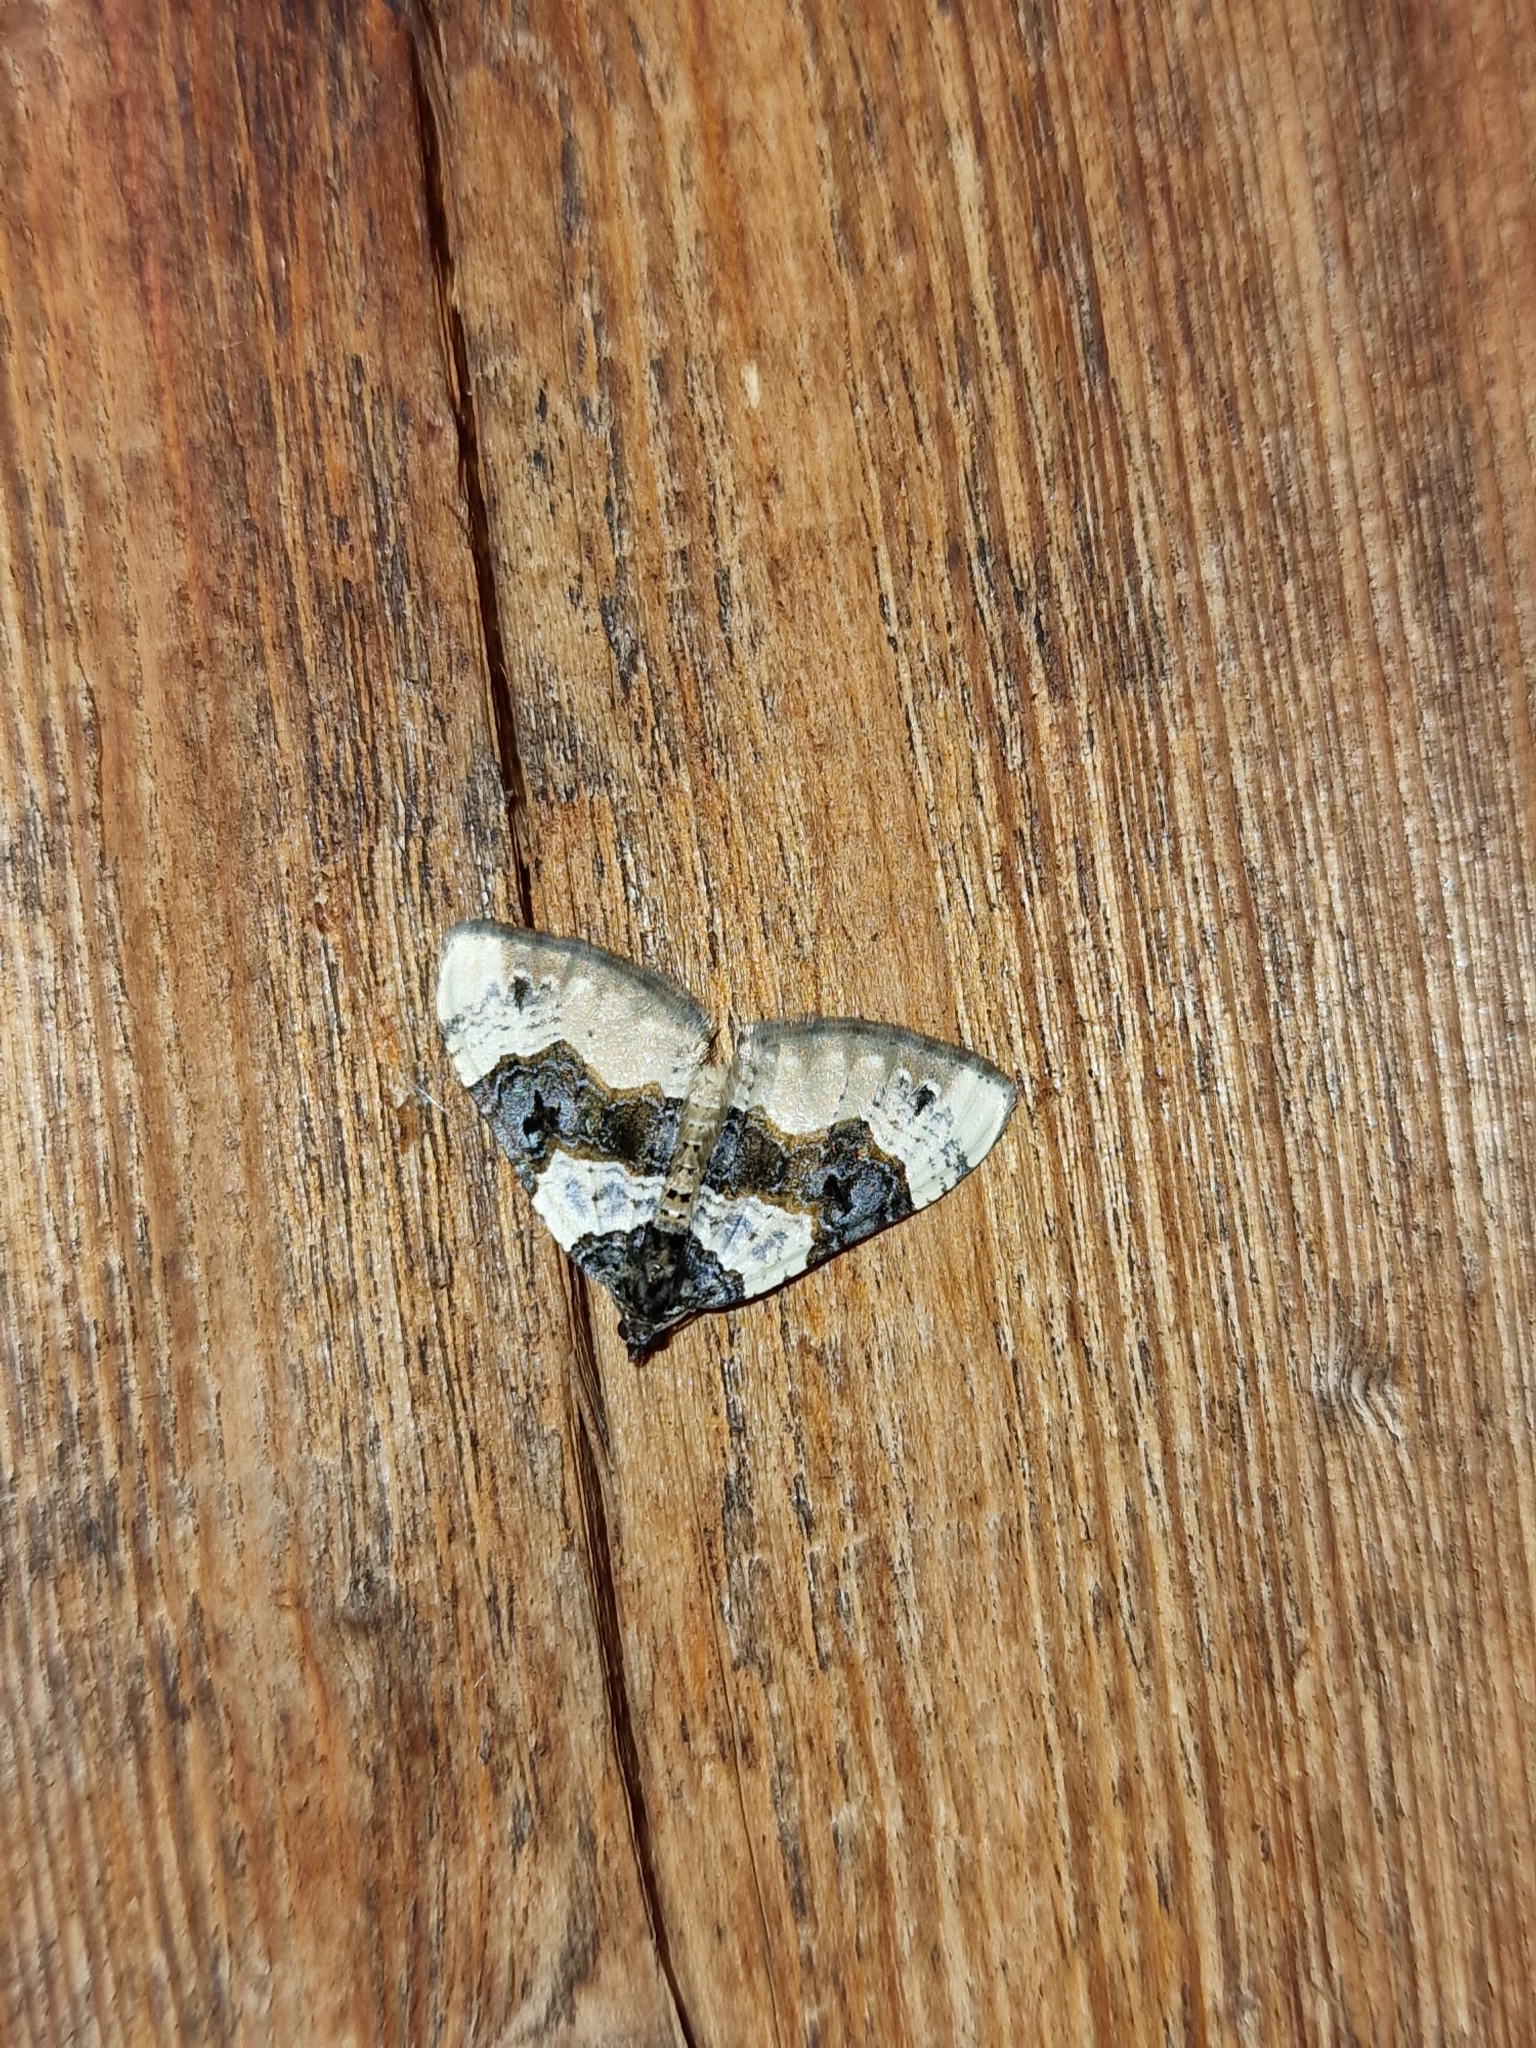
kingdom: Animalia
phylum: Arthropoda
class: Insecta
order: Lepidoptera
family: Geometridae
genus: Cosmorhoe
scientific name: Cosmorhoe ocellata
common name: Purple bar
